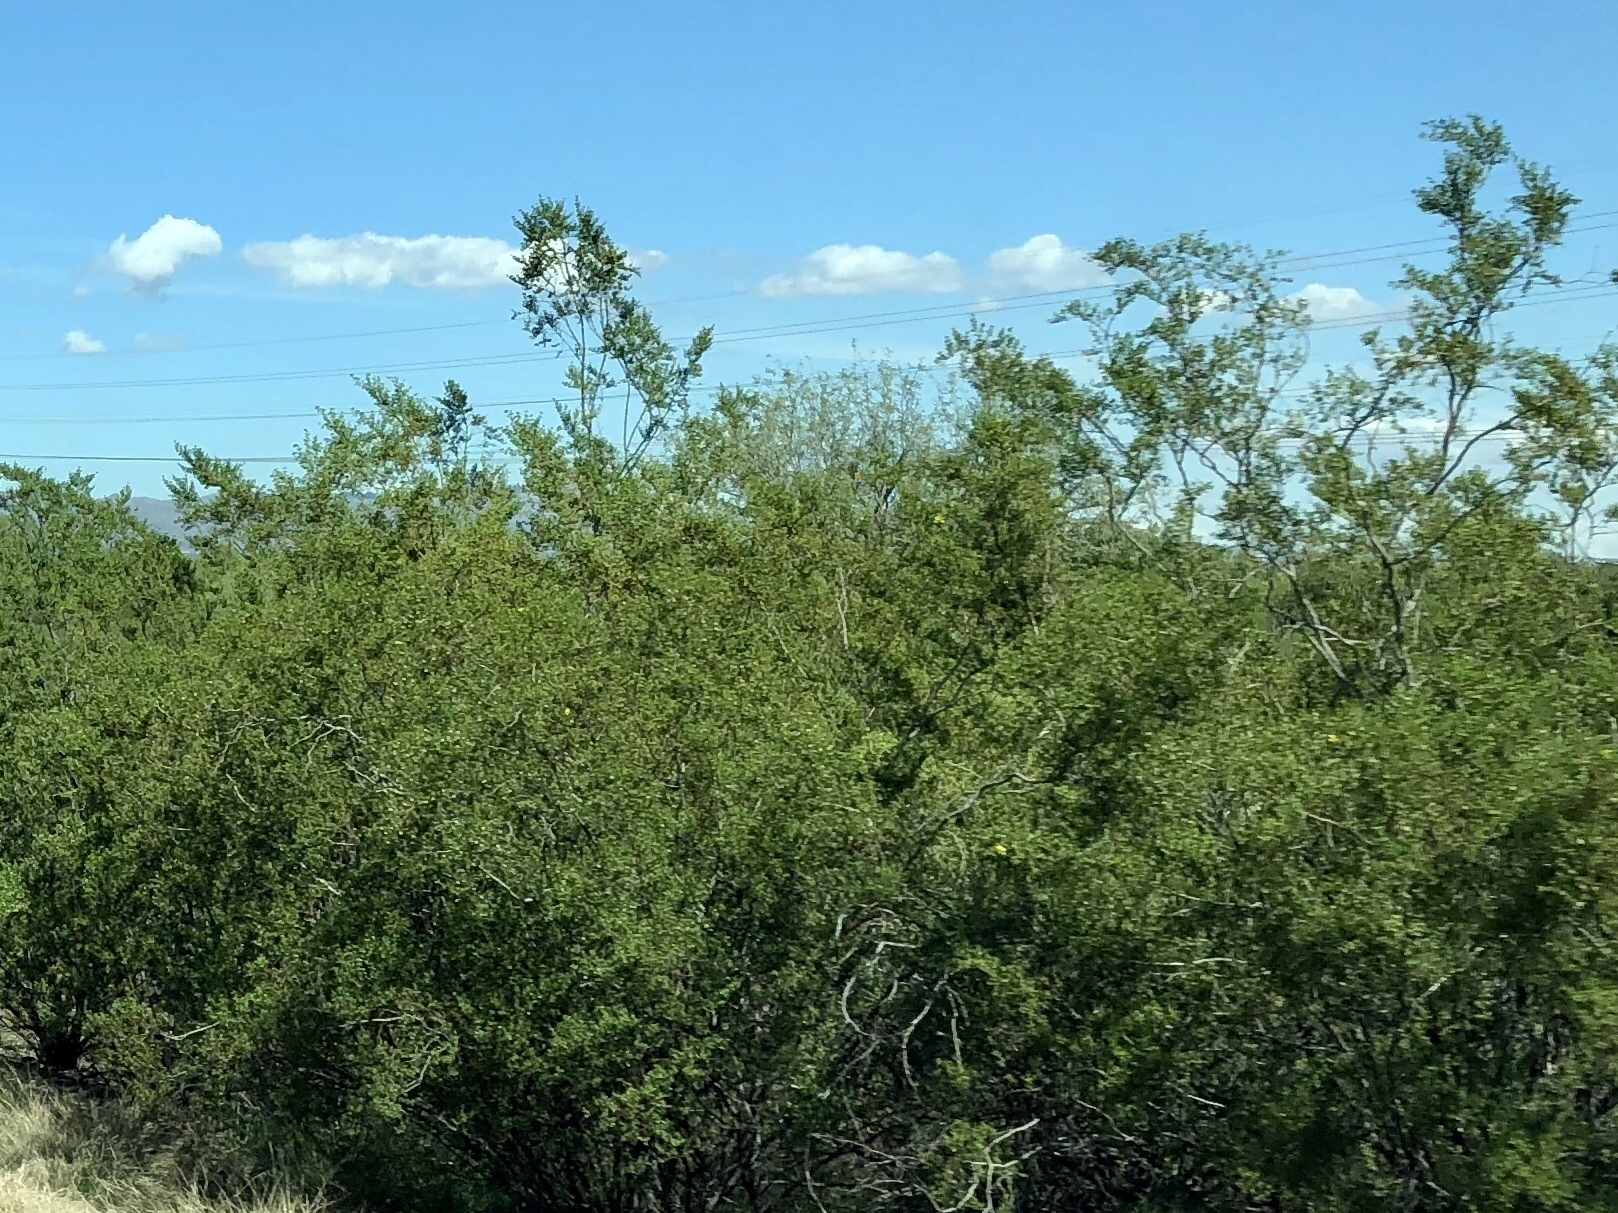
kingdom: Plantae
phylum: Tracheophyta
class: Magnoliopsida
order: Zygophyllales
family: Zygophyllaceae
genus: Larrea
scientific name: Larrea tridentata
